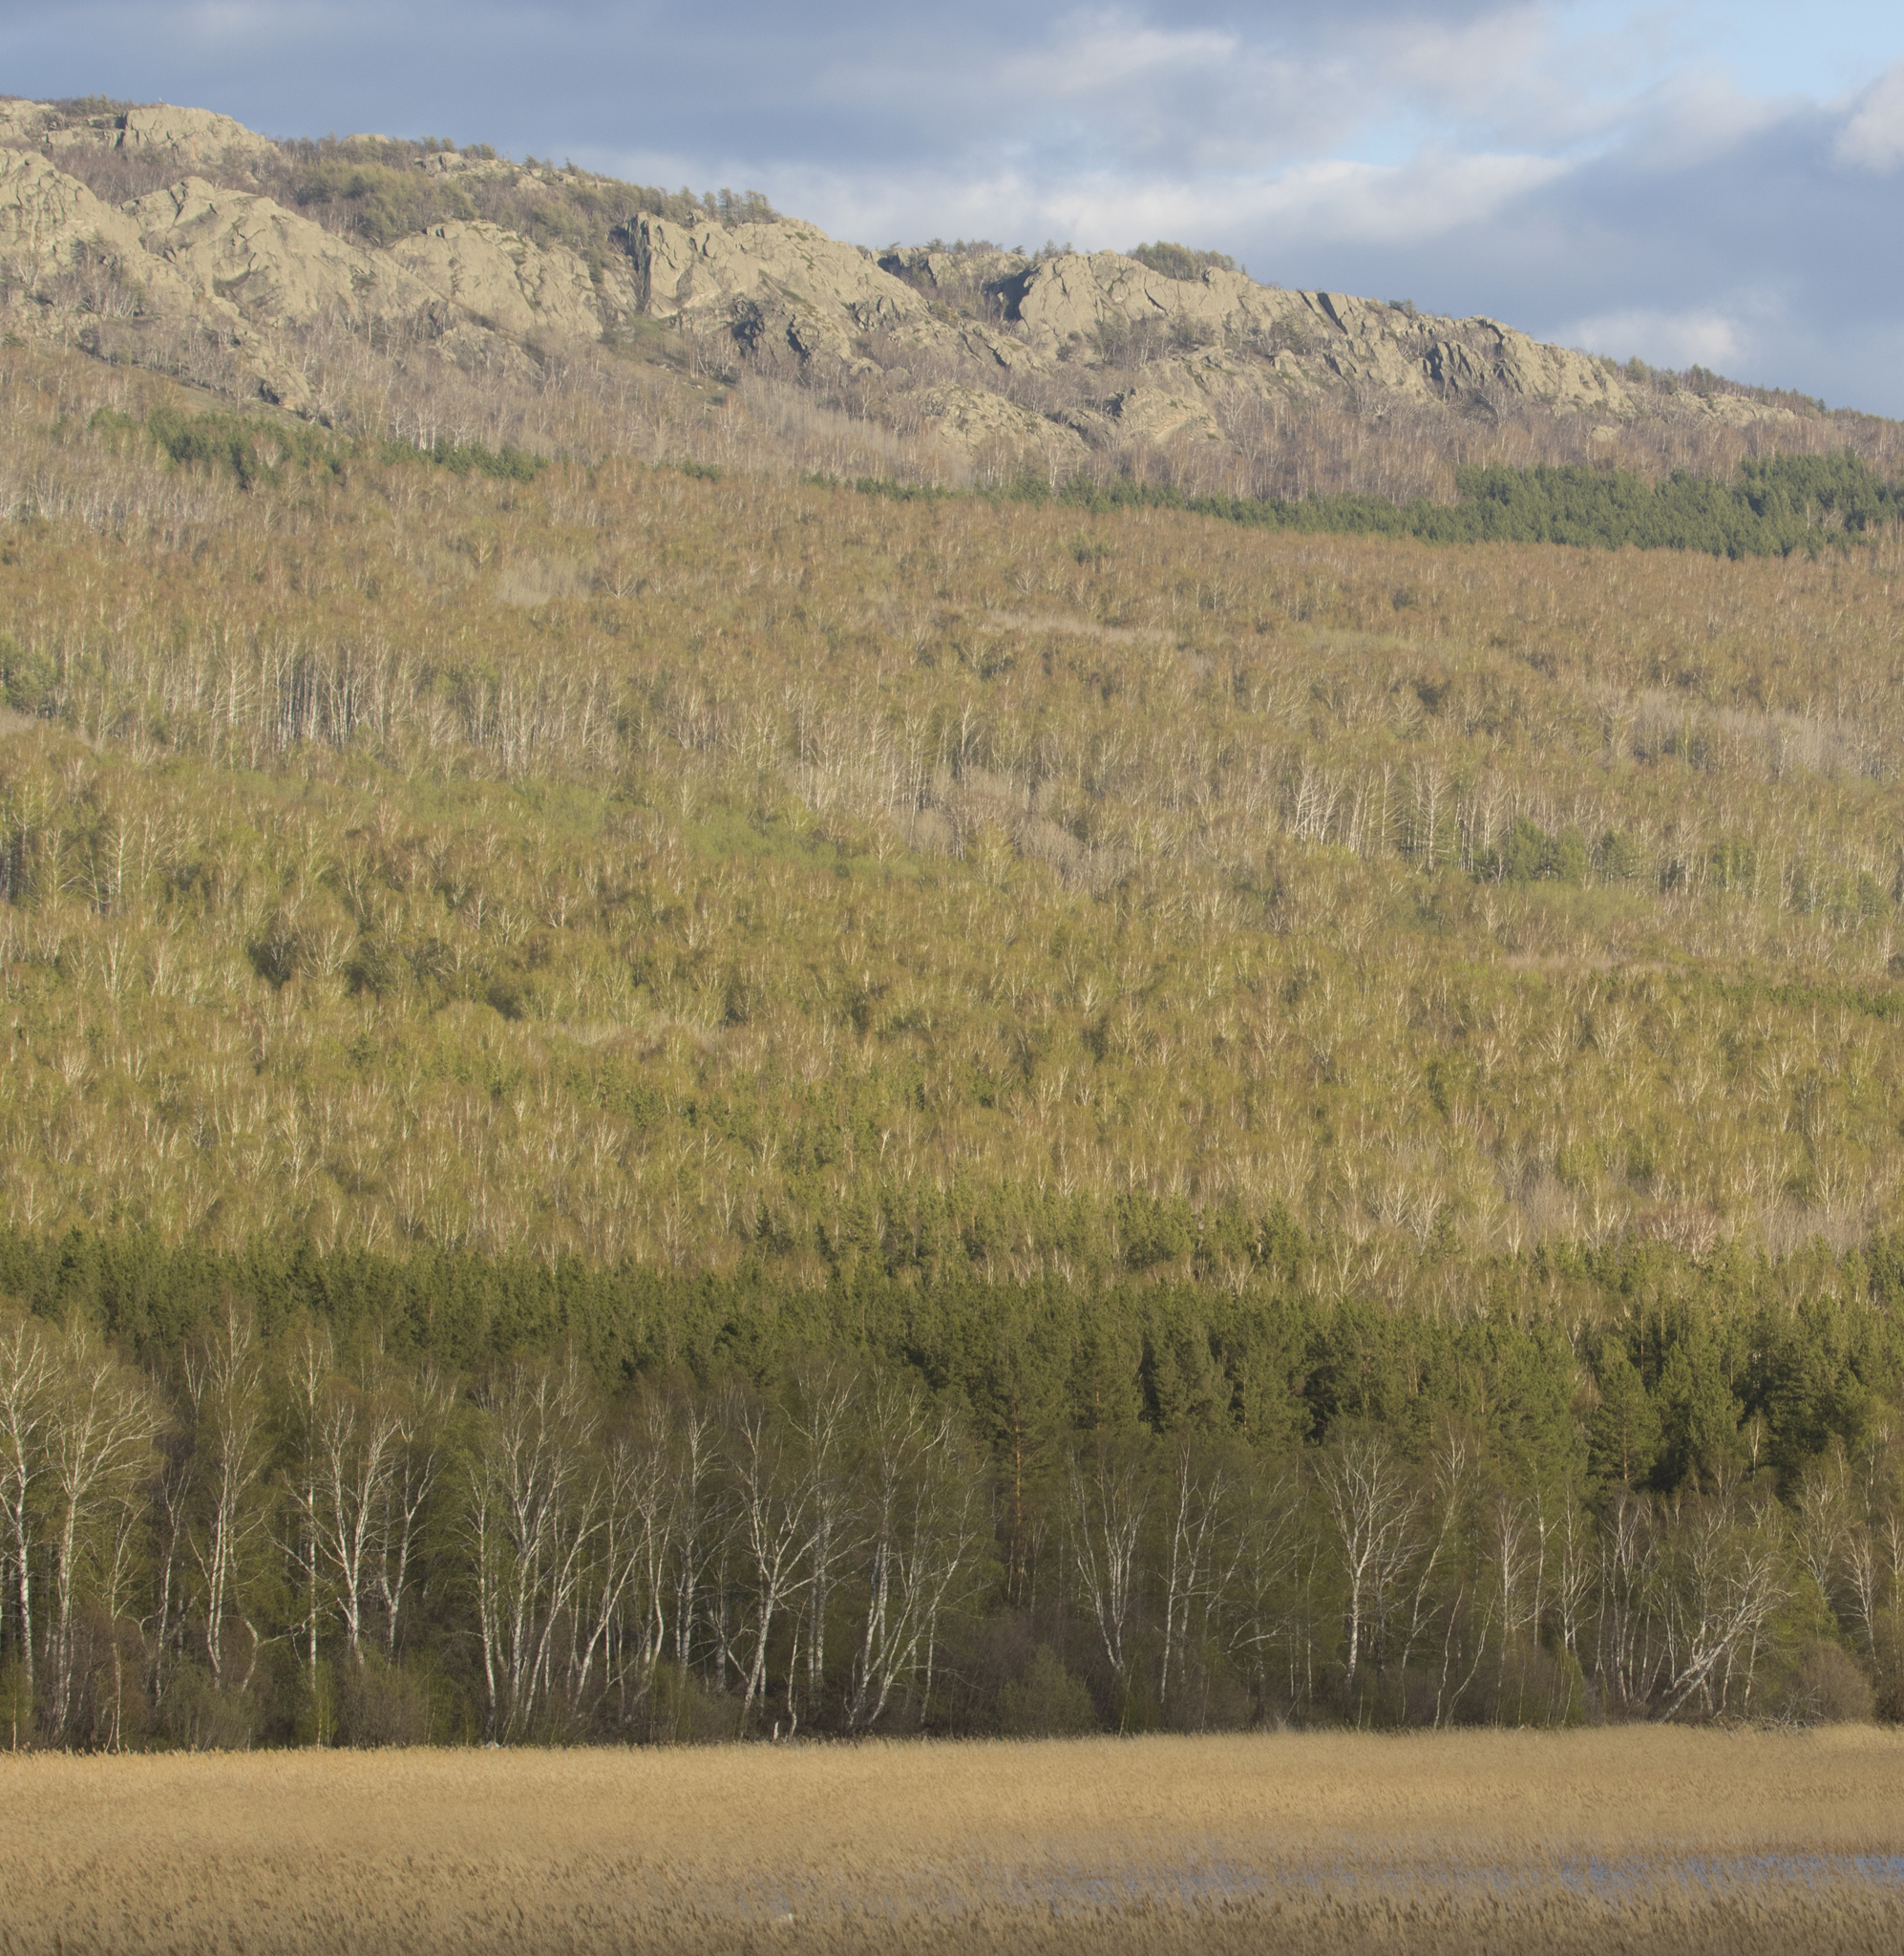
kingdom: Plantae
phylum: Tracheophyta
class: Pinopsida
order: Pinales
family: Pinaceae
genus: Pinus
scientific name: Pinus sylvestris
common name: Scots pine
